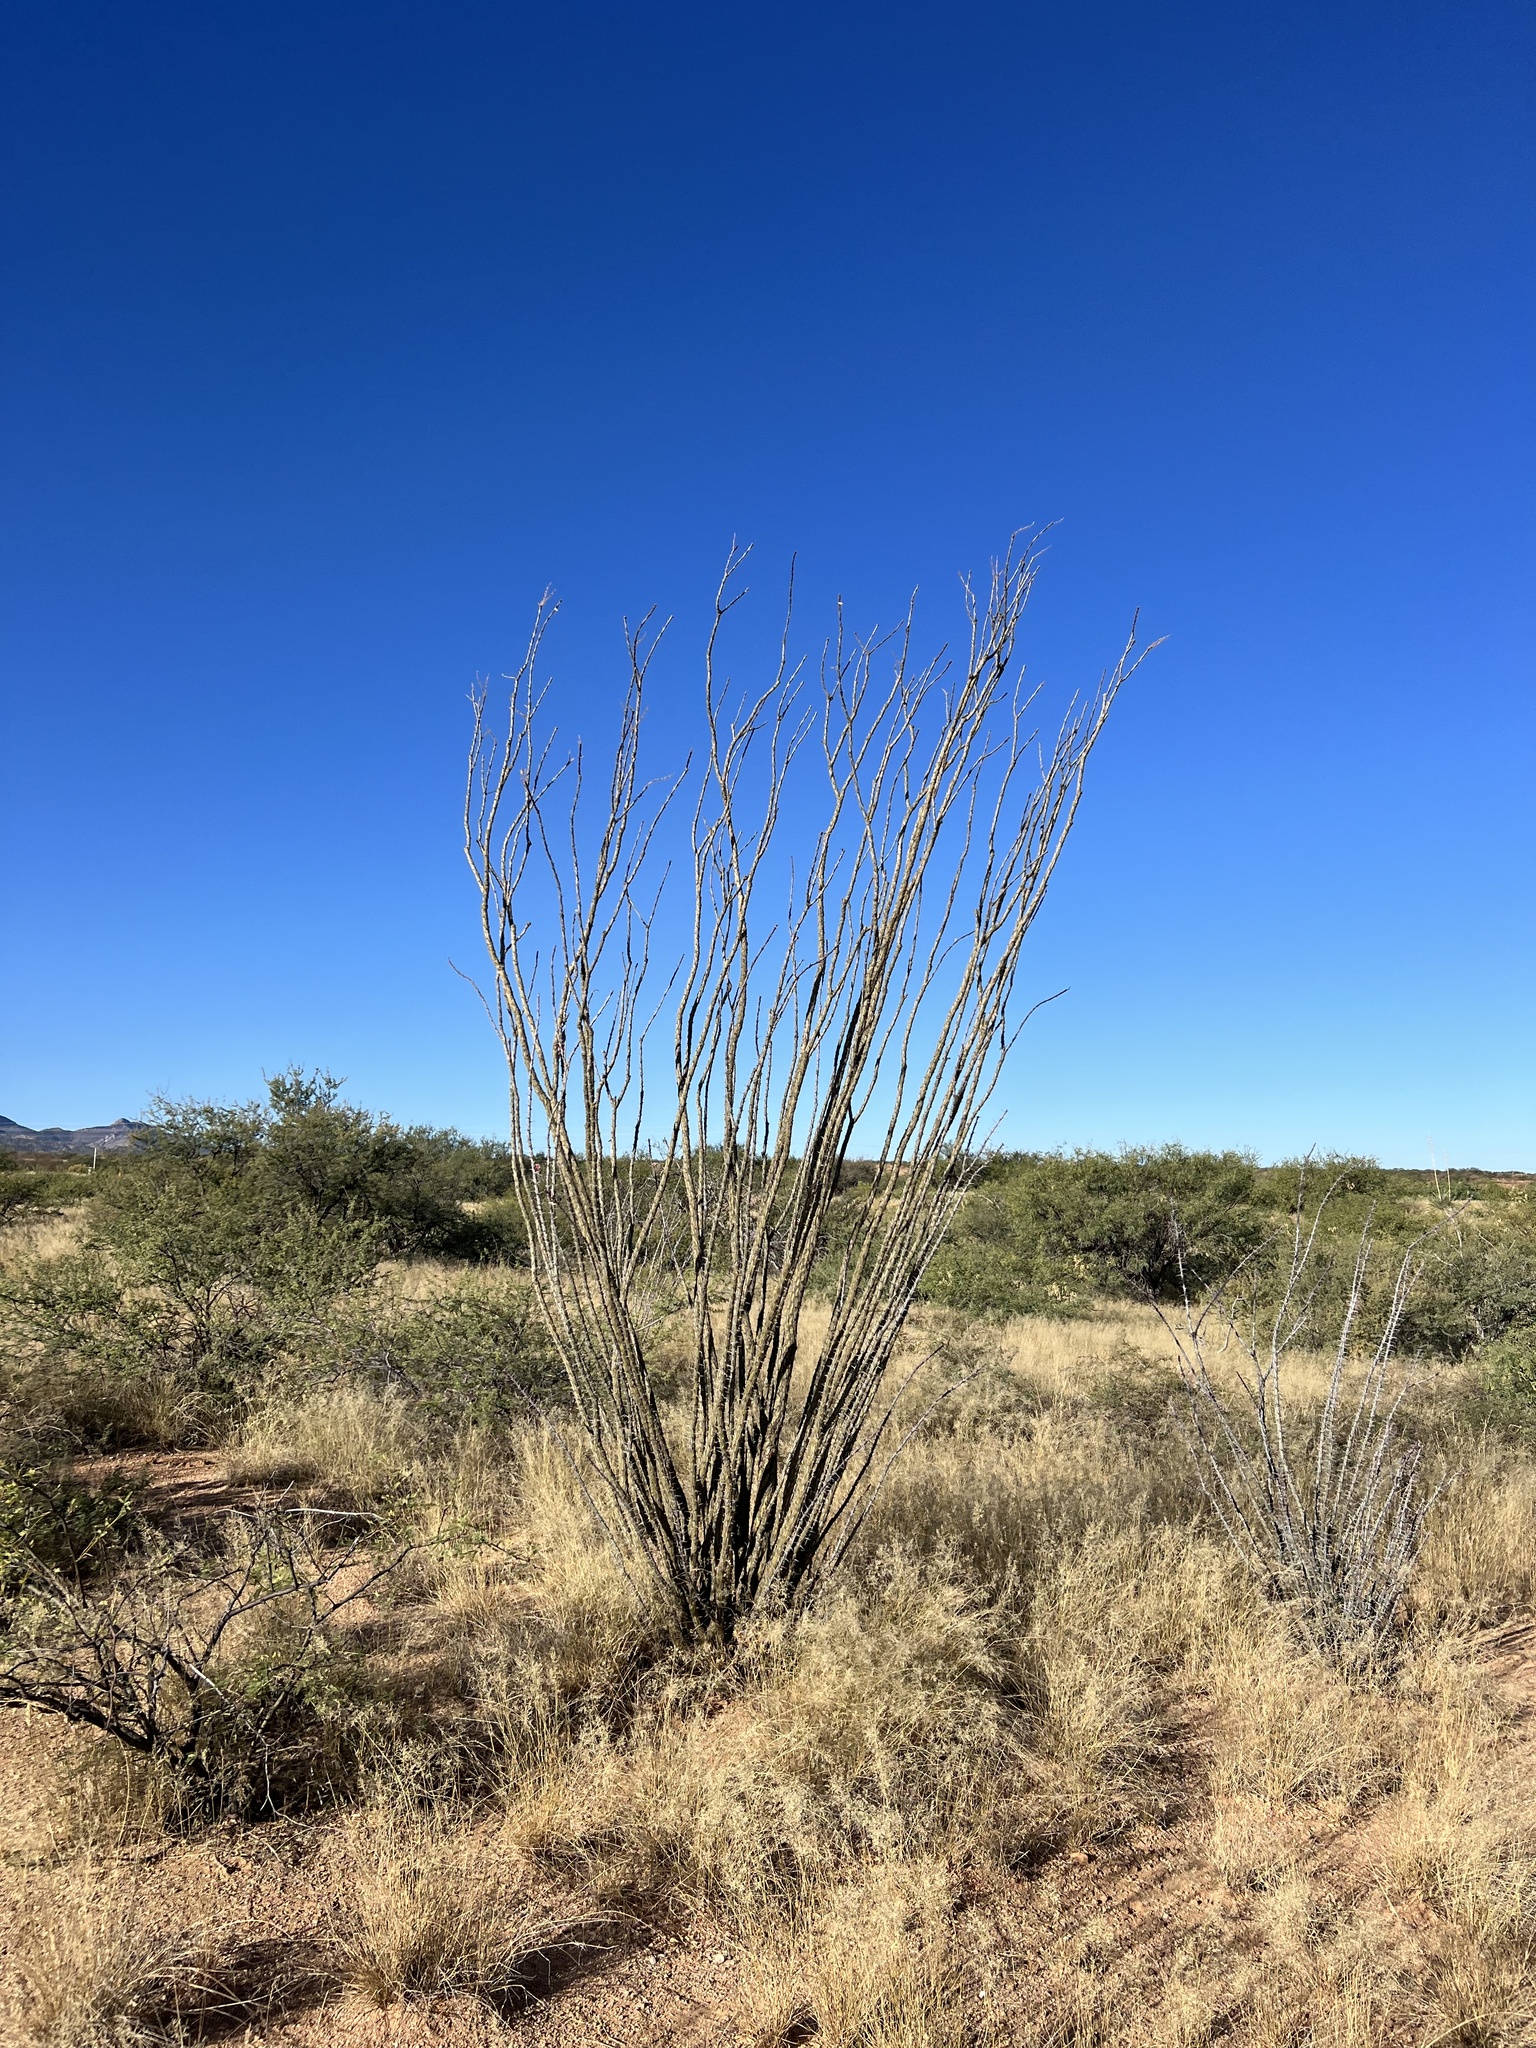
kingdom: Plantae
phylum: Tracheophyta
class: Magnoliopsida
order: Ericales
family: Fouquieriaceae
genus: Fouquieria
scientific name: Fouquieria splendens
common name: Vine-cactus
